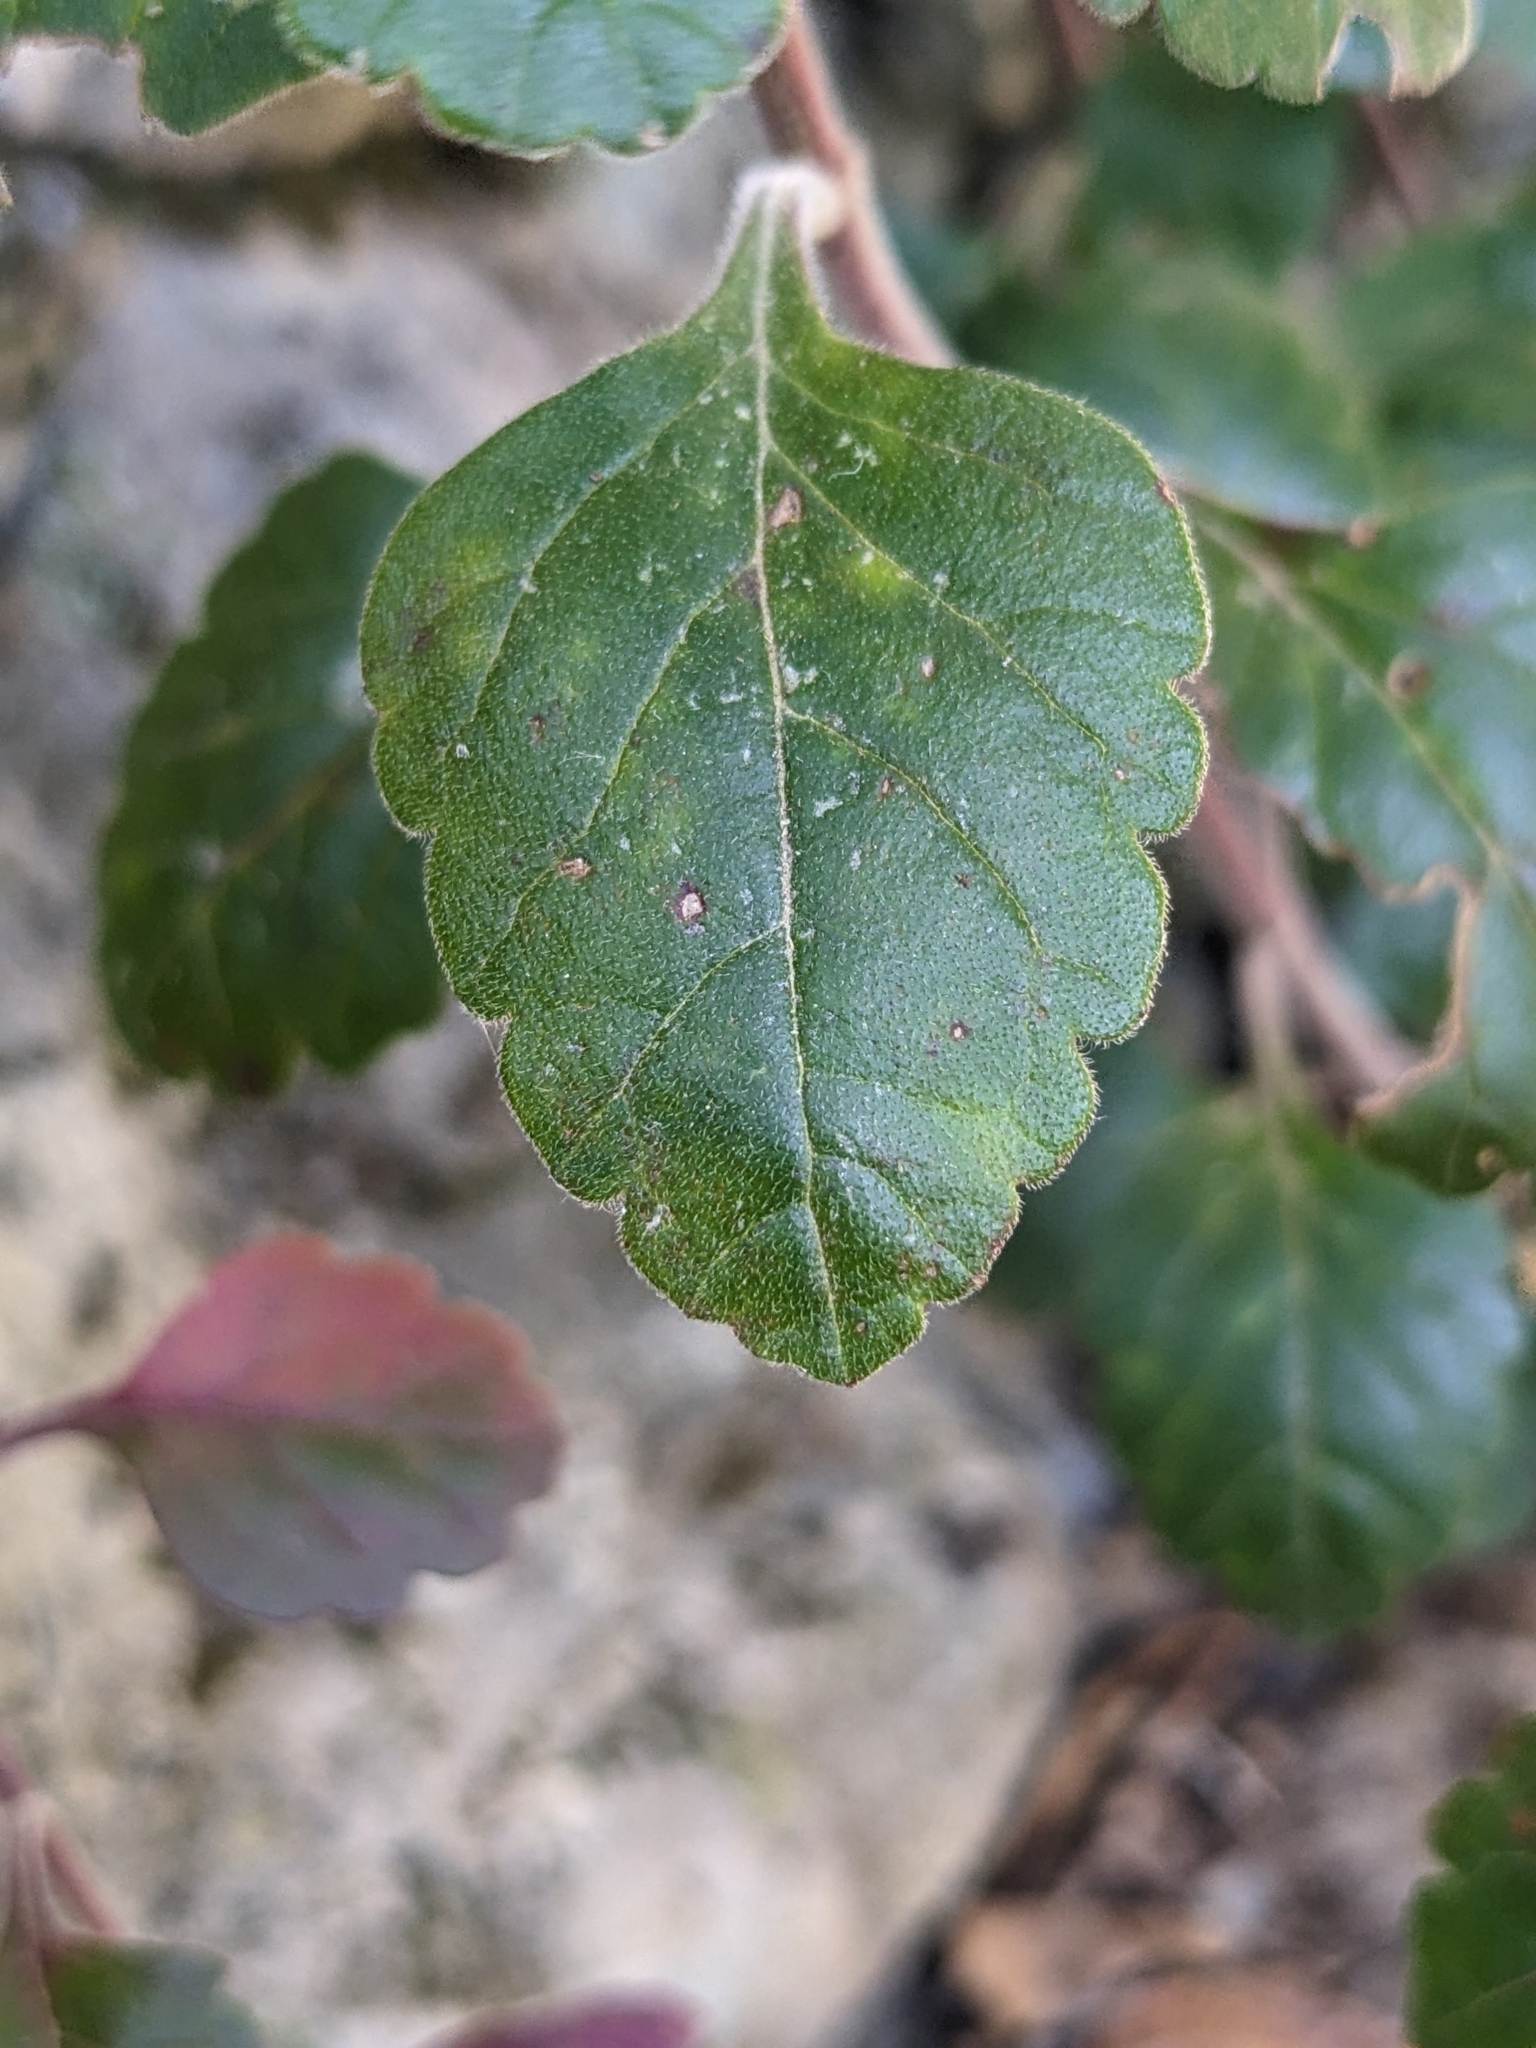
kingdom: Plantae
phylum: Tracheophyta
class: Magnoliopsida
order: Lamiales
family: Lamiaceae
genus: Teucrium
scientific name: Teucrium flavum
